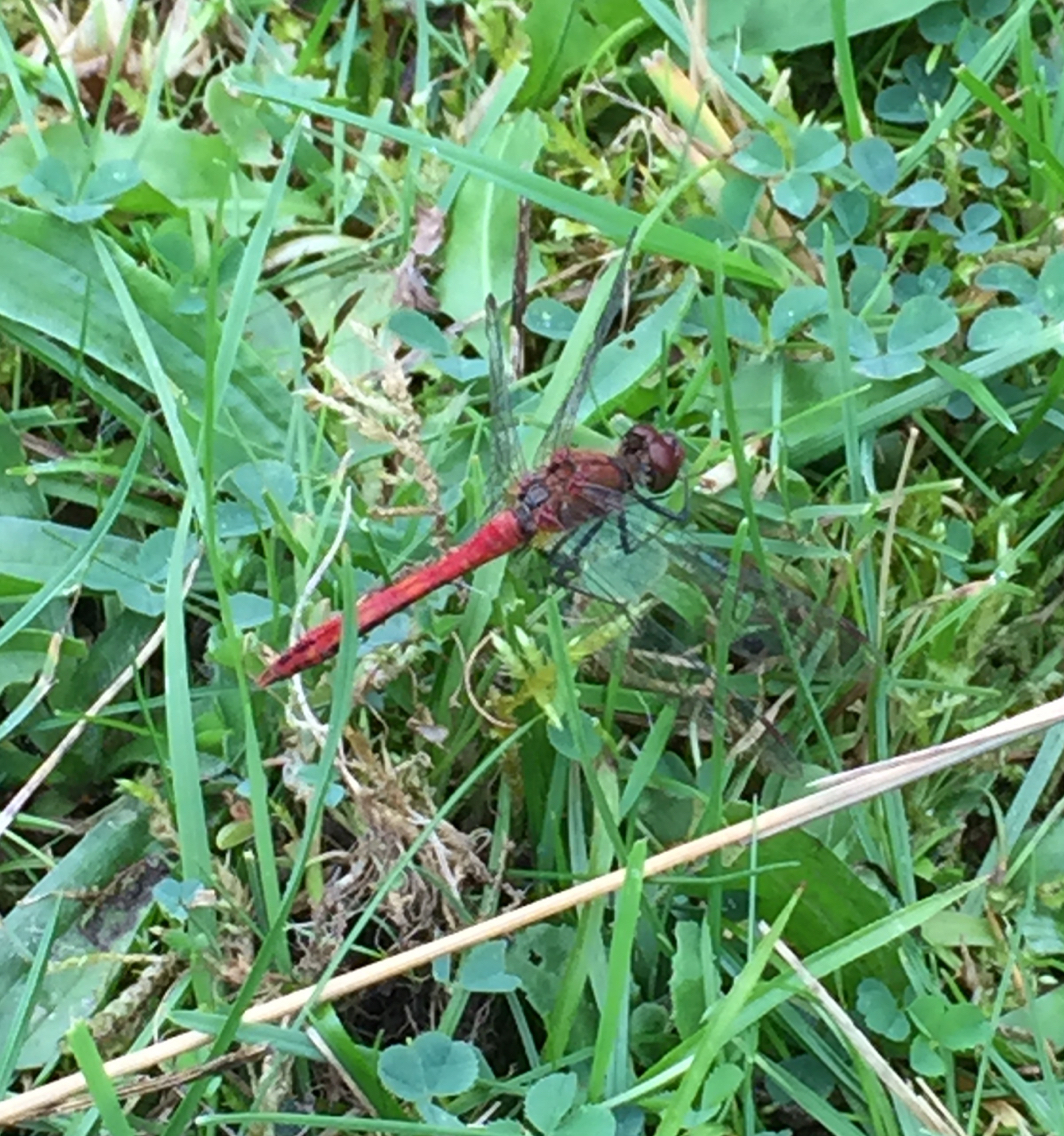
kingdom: Animalia
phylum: Arthropoda
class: Insecta
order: Odonata
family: Libellulidae
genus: Sympetrum
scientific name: Sympetrum sanguineum
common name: Ruddy darter
